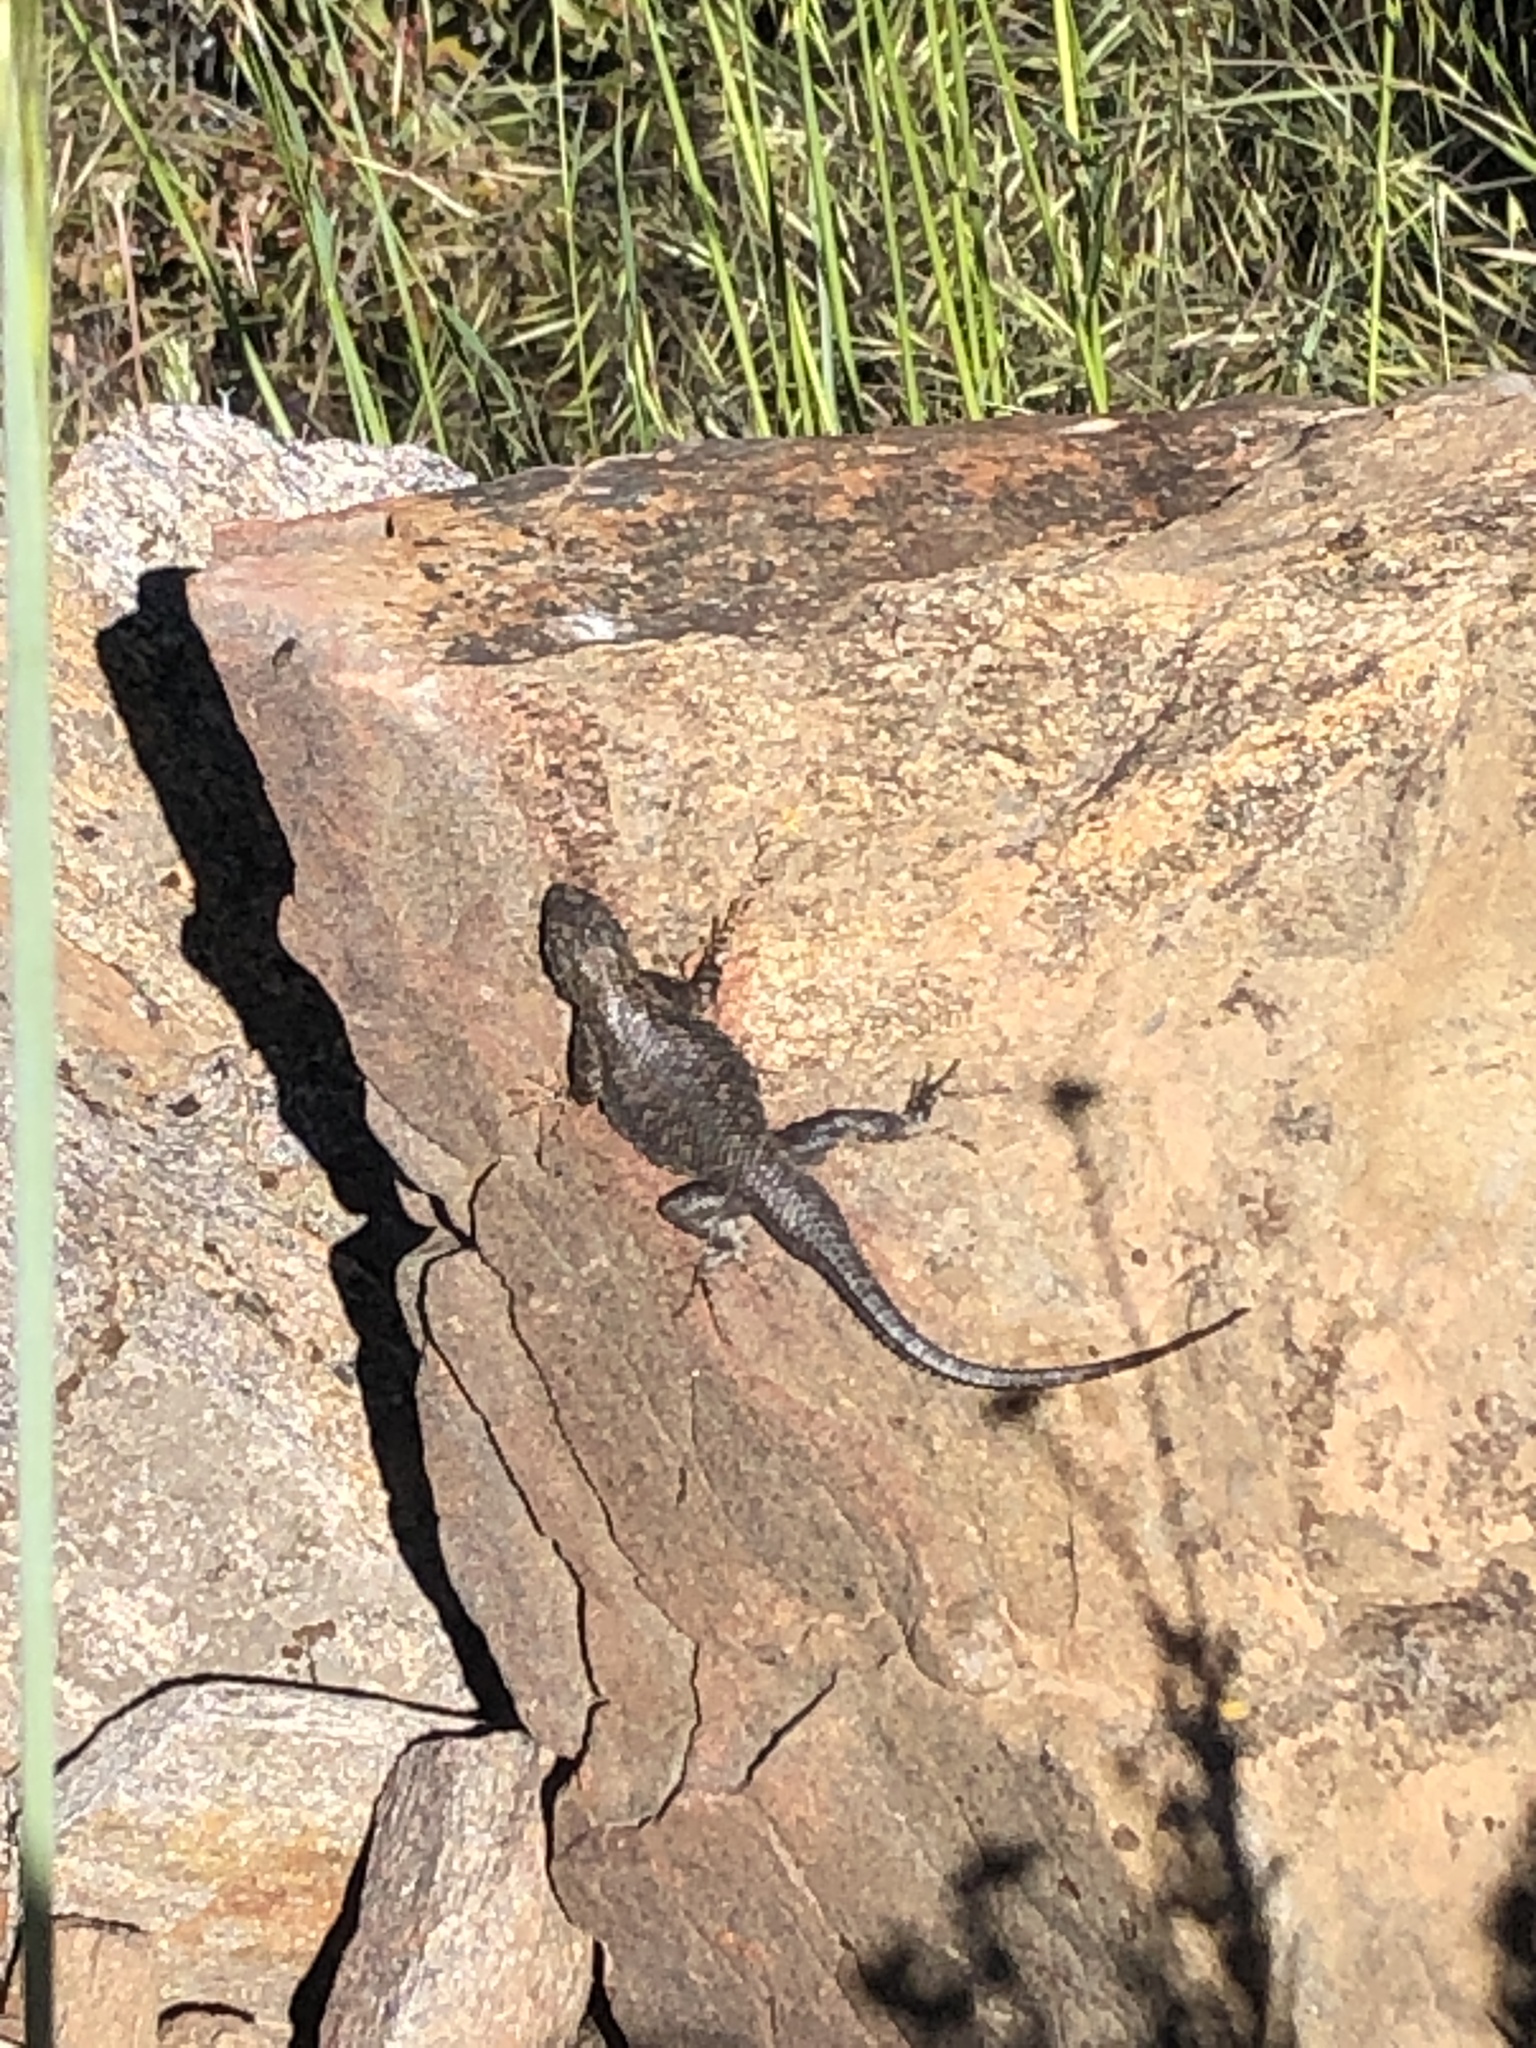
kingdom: Animalia
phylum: Chordata
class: Squamata
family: Phrynosomatidae
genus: Sceloporus
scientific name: Sceloporus occidentalis
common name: Western fence lizard
